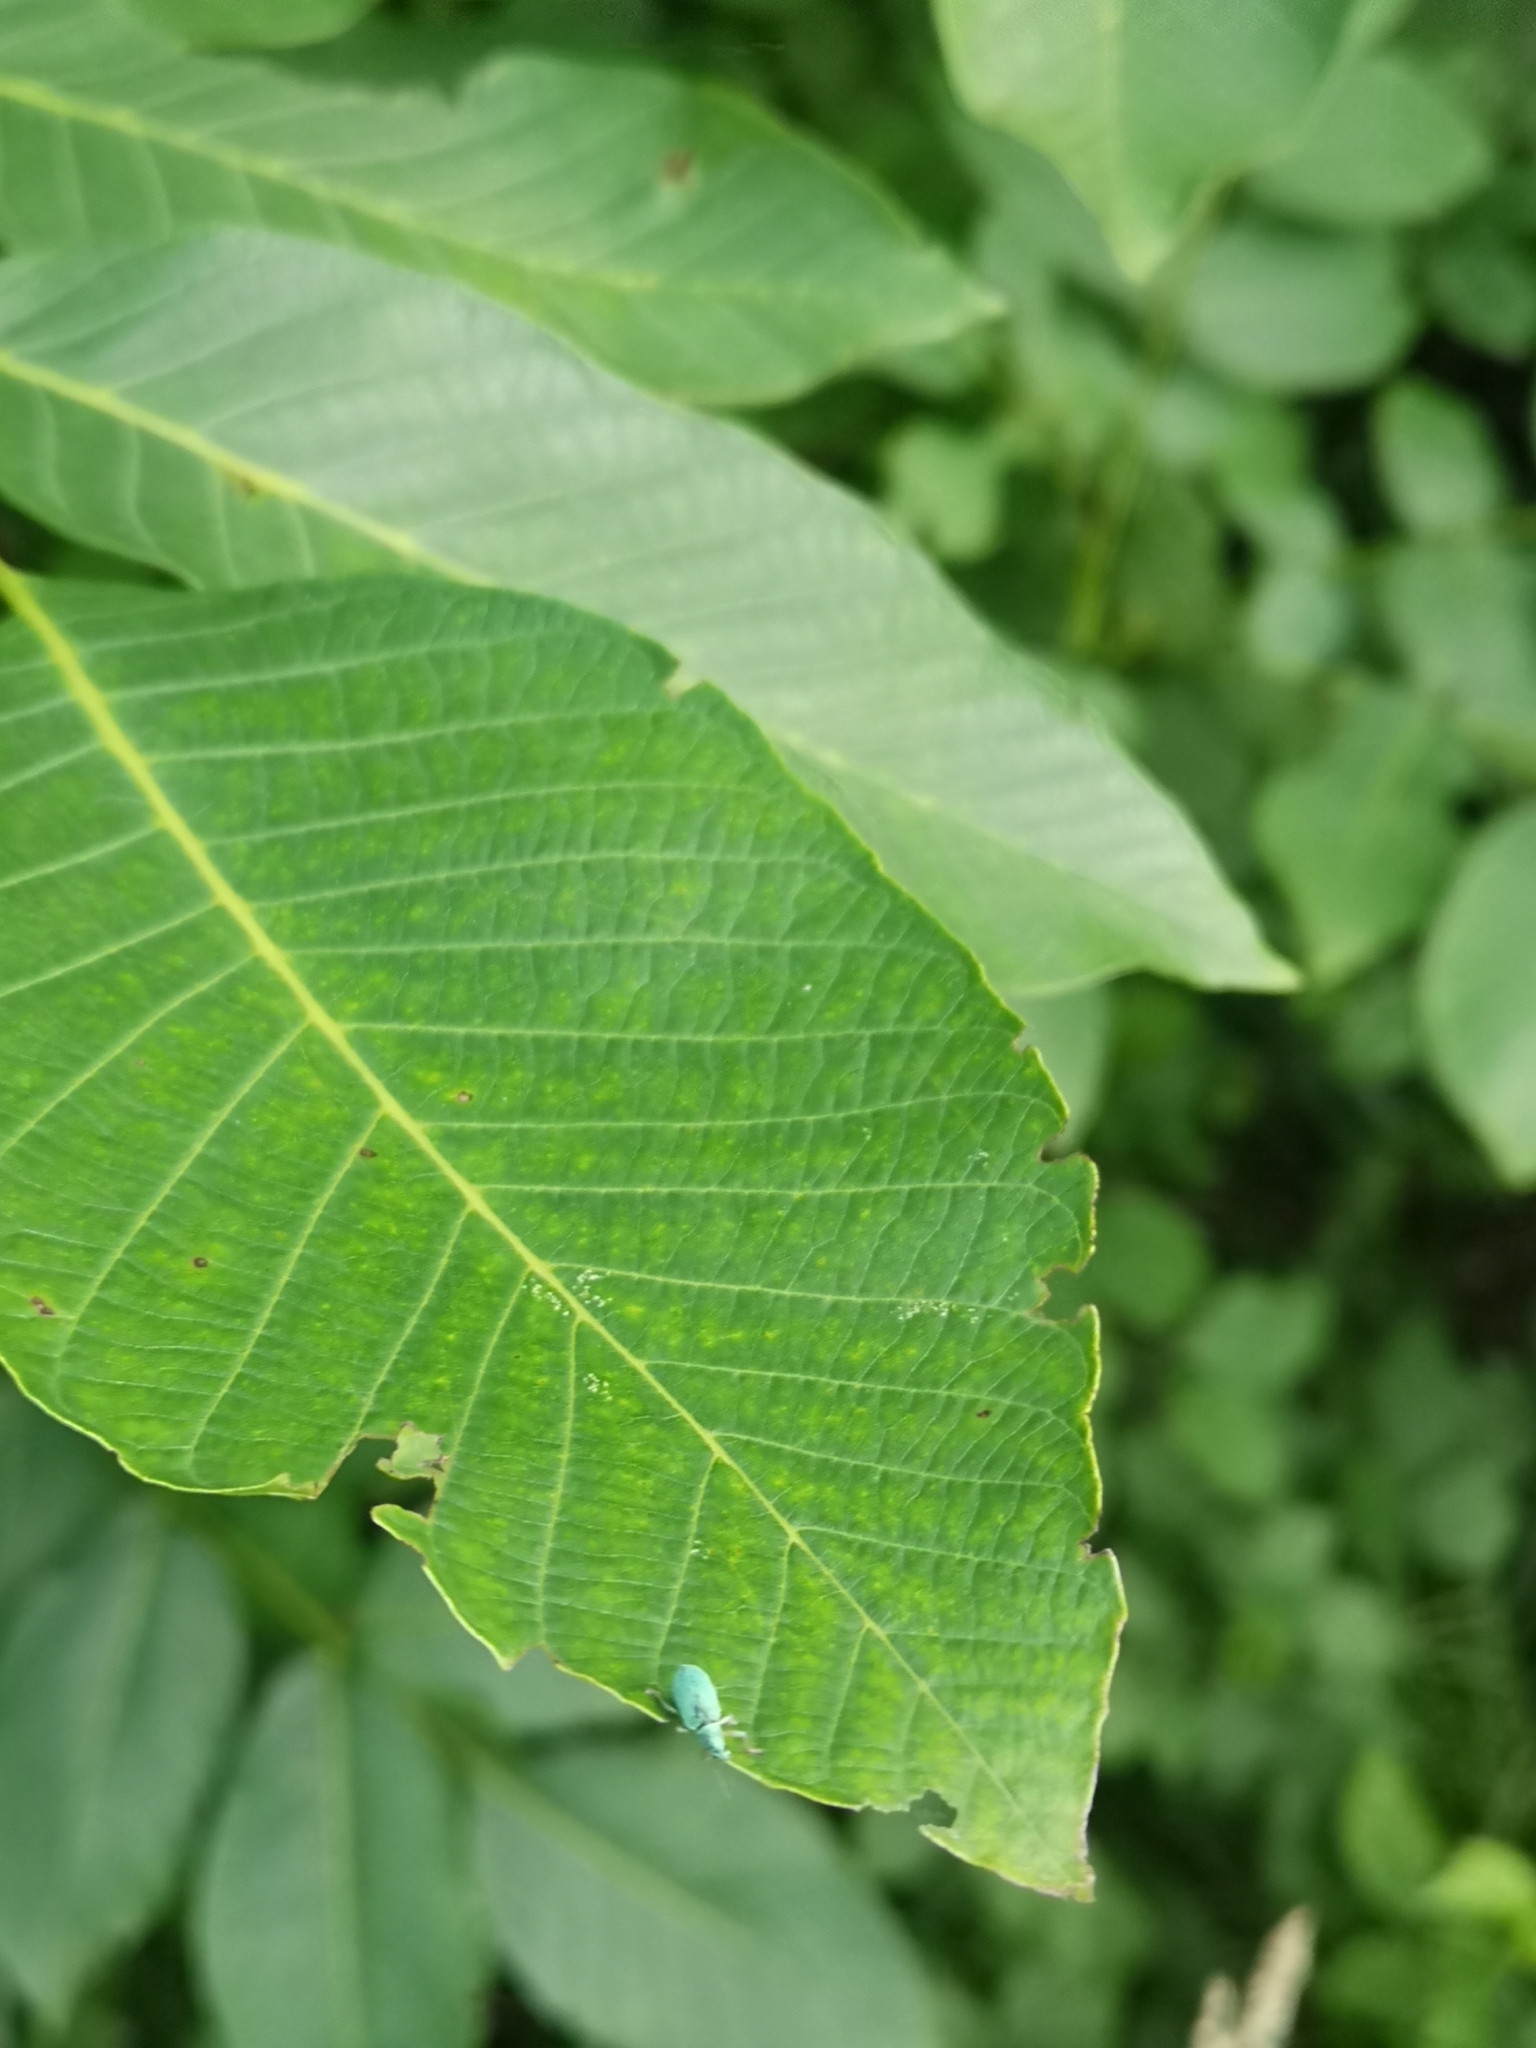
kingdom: Animalia
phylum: Arthropoda
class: Insecta
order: Coleoptera
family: Curculionidae
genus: Polydrusus
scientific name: Polydrusus formosus
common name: Weevil
